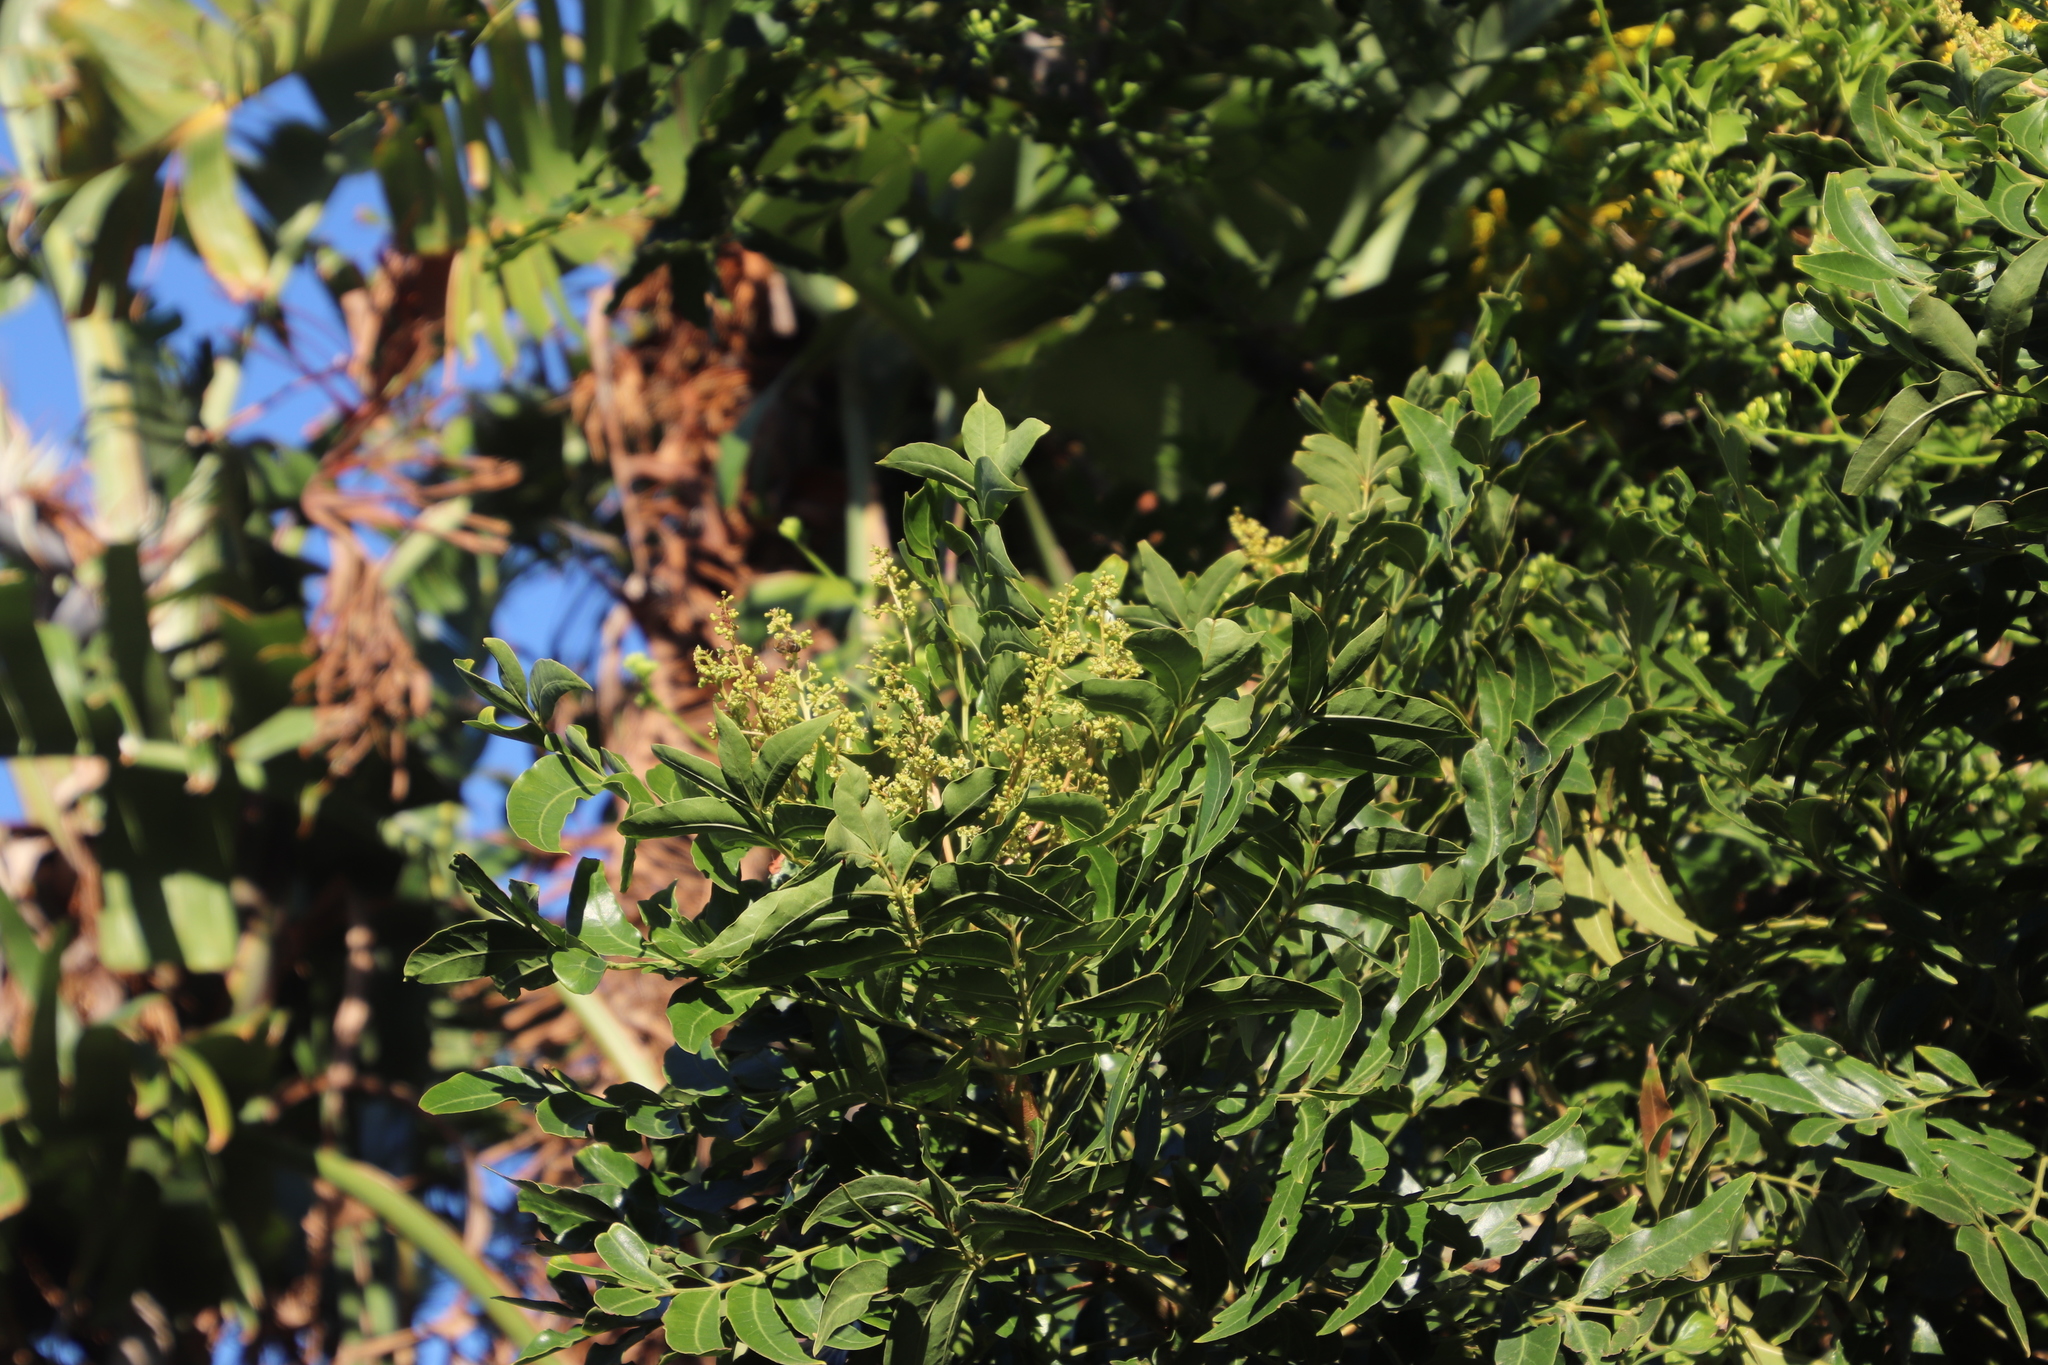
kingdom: Animalia
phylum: Arthropoda
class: Insecta
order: Hymenoptera
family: Apidae
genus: Apis
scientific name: Apis mellifera
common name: Honey bee
